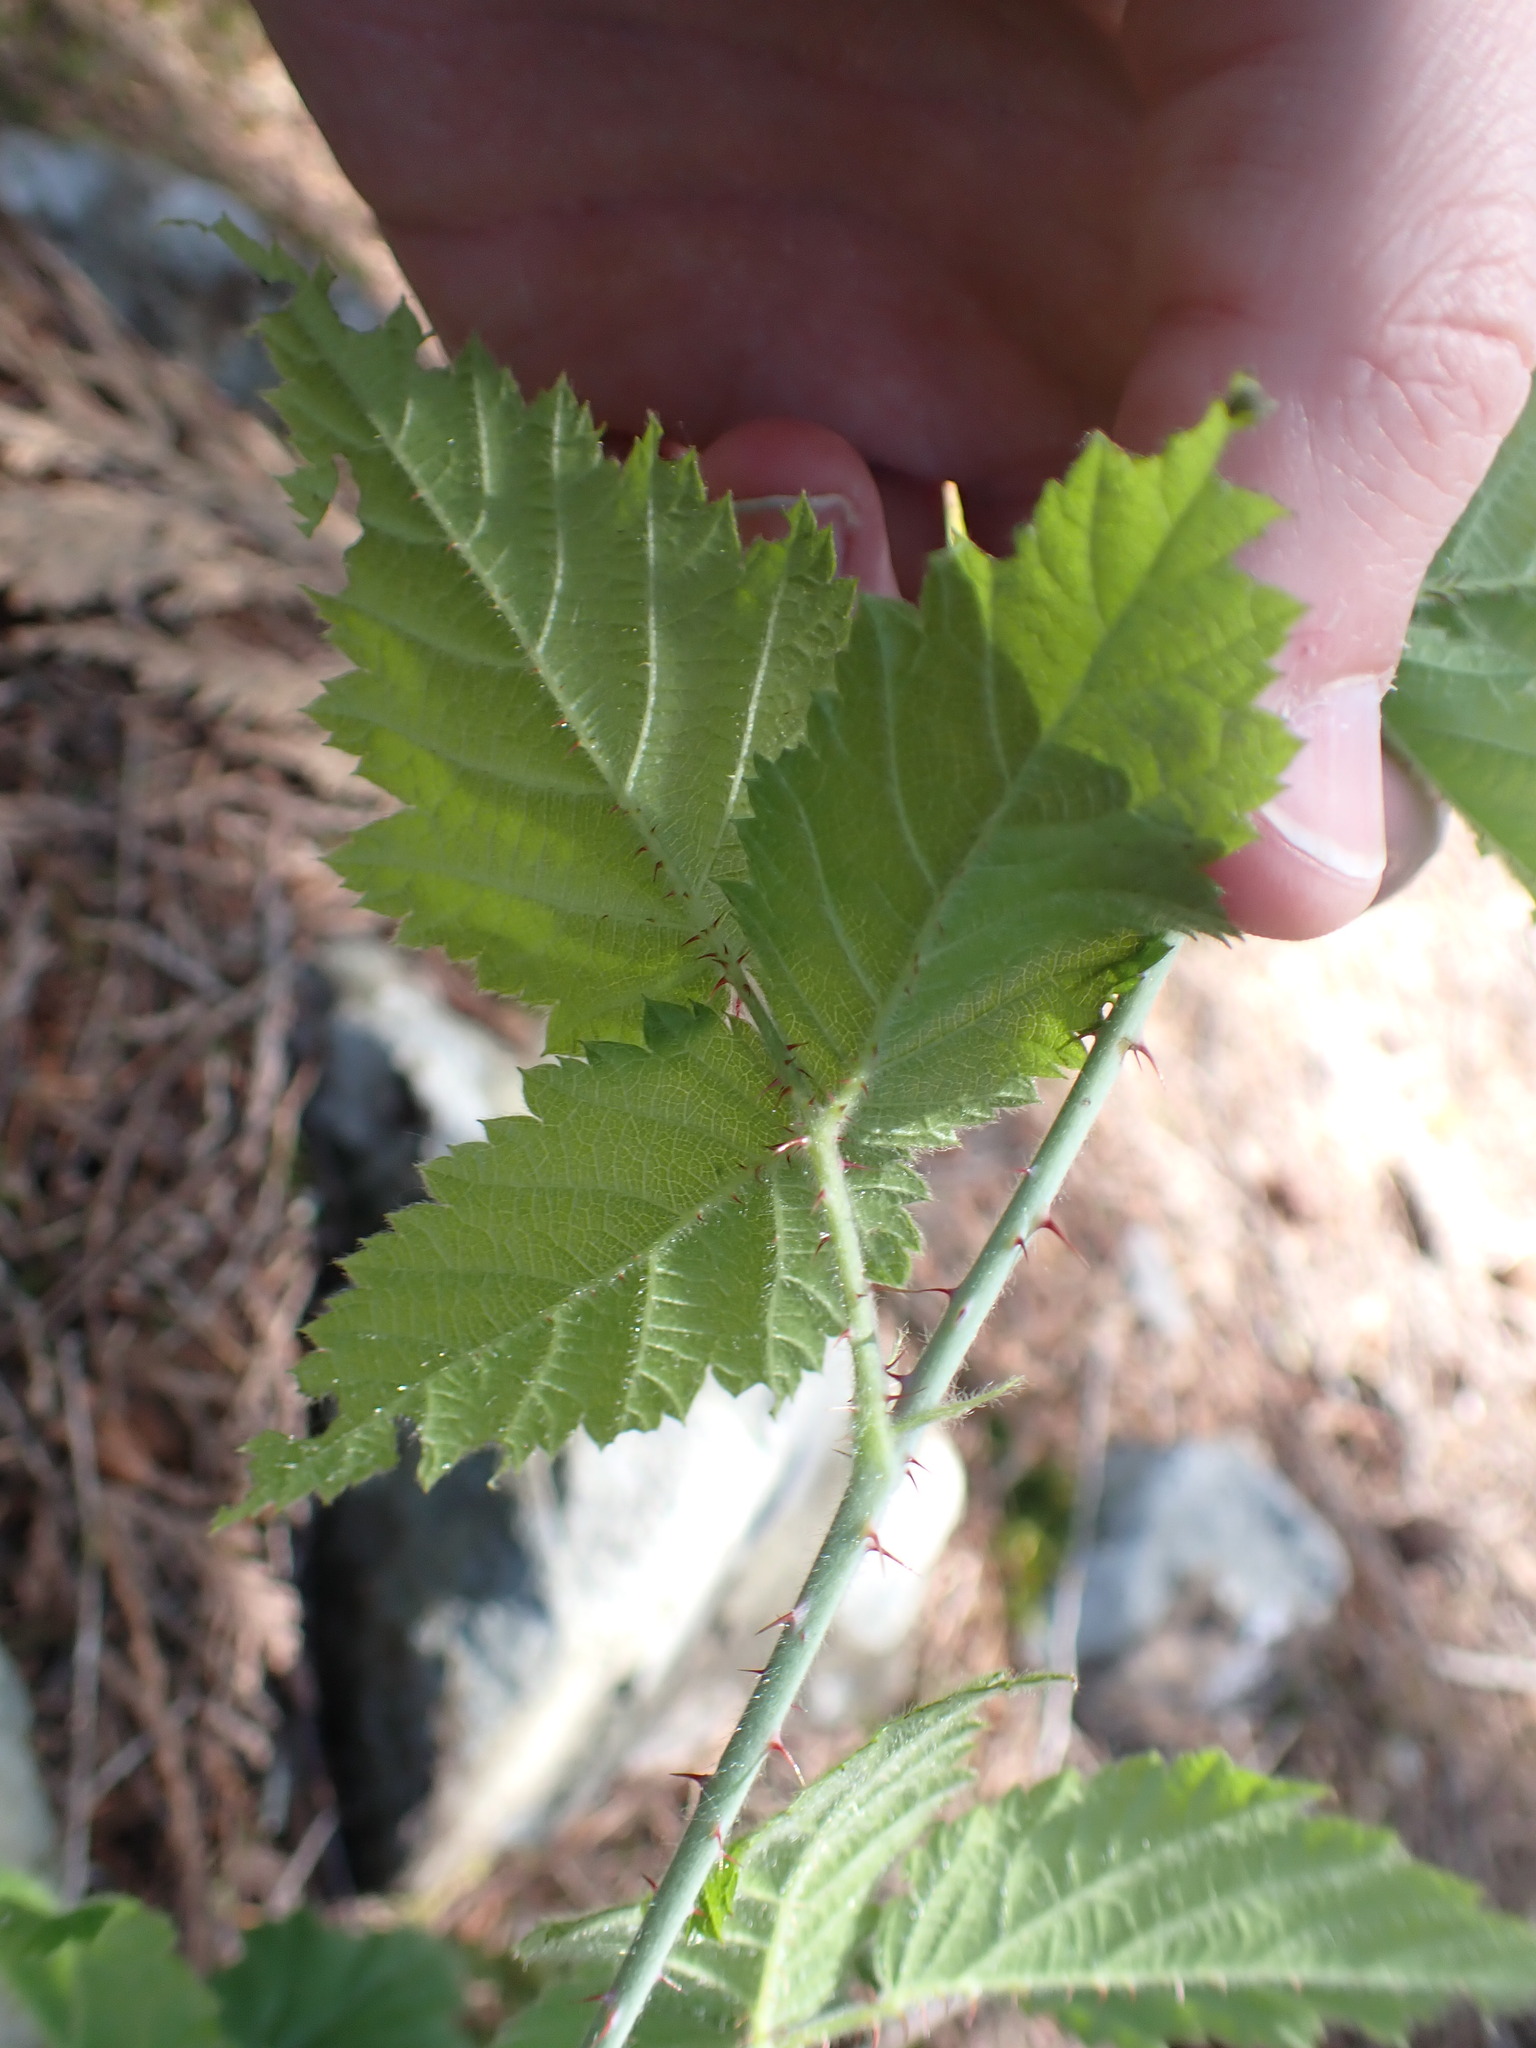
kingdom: Plantae
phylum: Tracheophyta
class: Magnoliopsida
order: Rosales
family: Rosaceae
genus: Rubus
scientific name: Rubus ursinus
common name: Pacific blackberry
